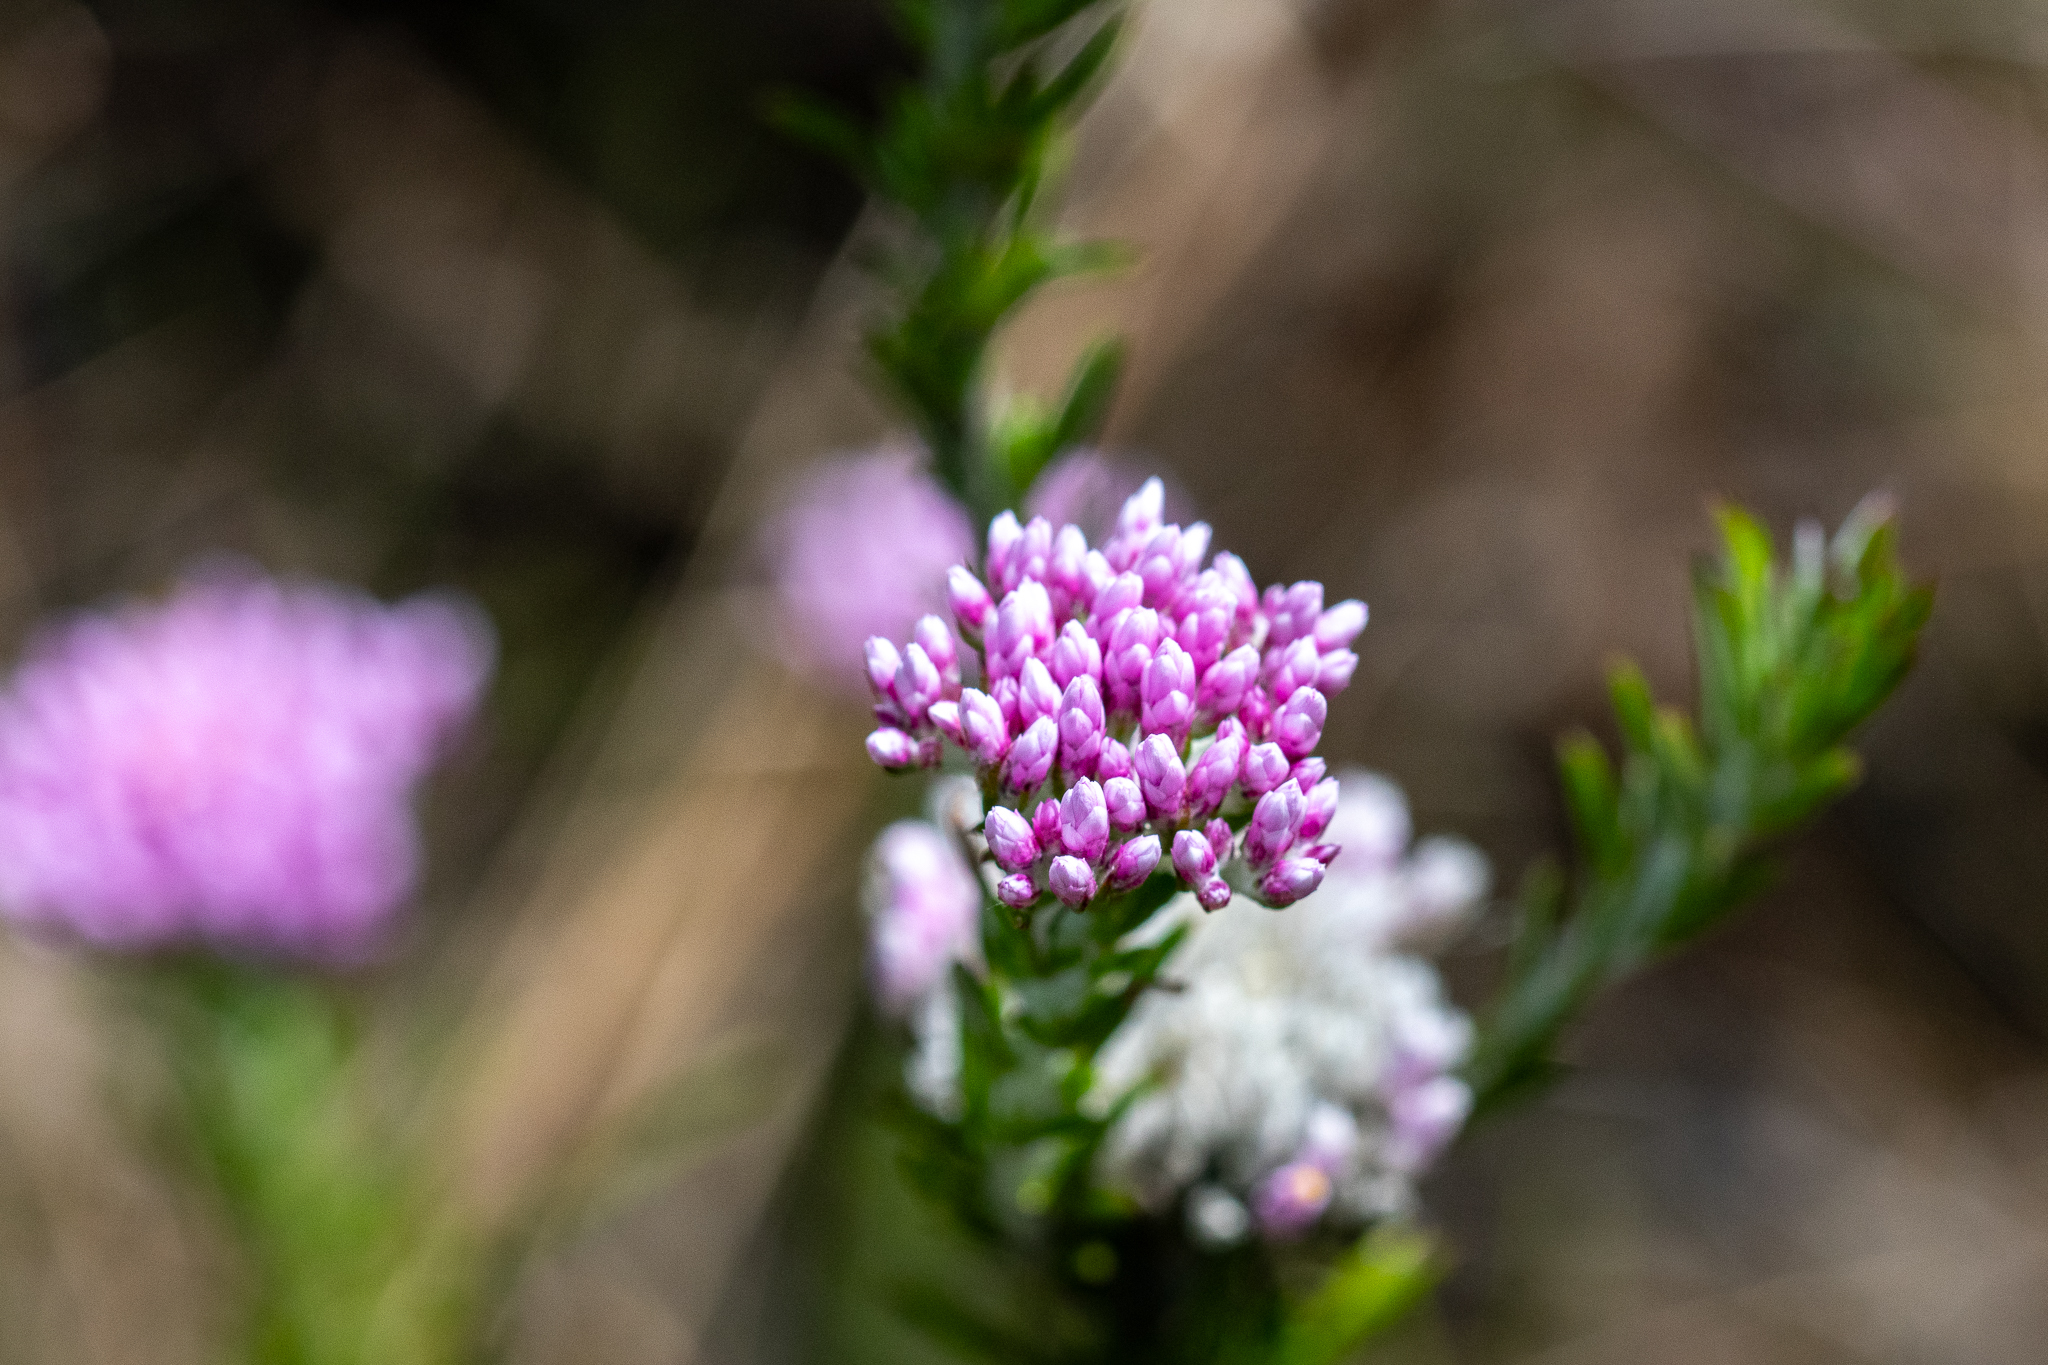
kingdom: Plantae
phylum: Tracheophyta
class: Magnoliopsida
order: Asterales
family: Asteraceae
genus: Metalasia
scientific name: Metalasia erubescens
